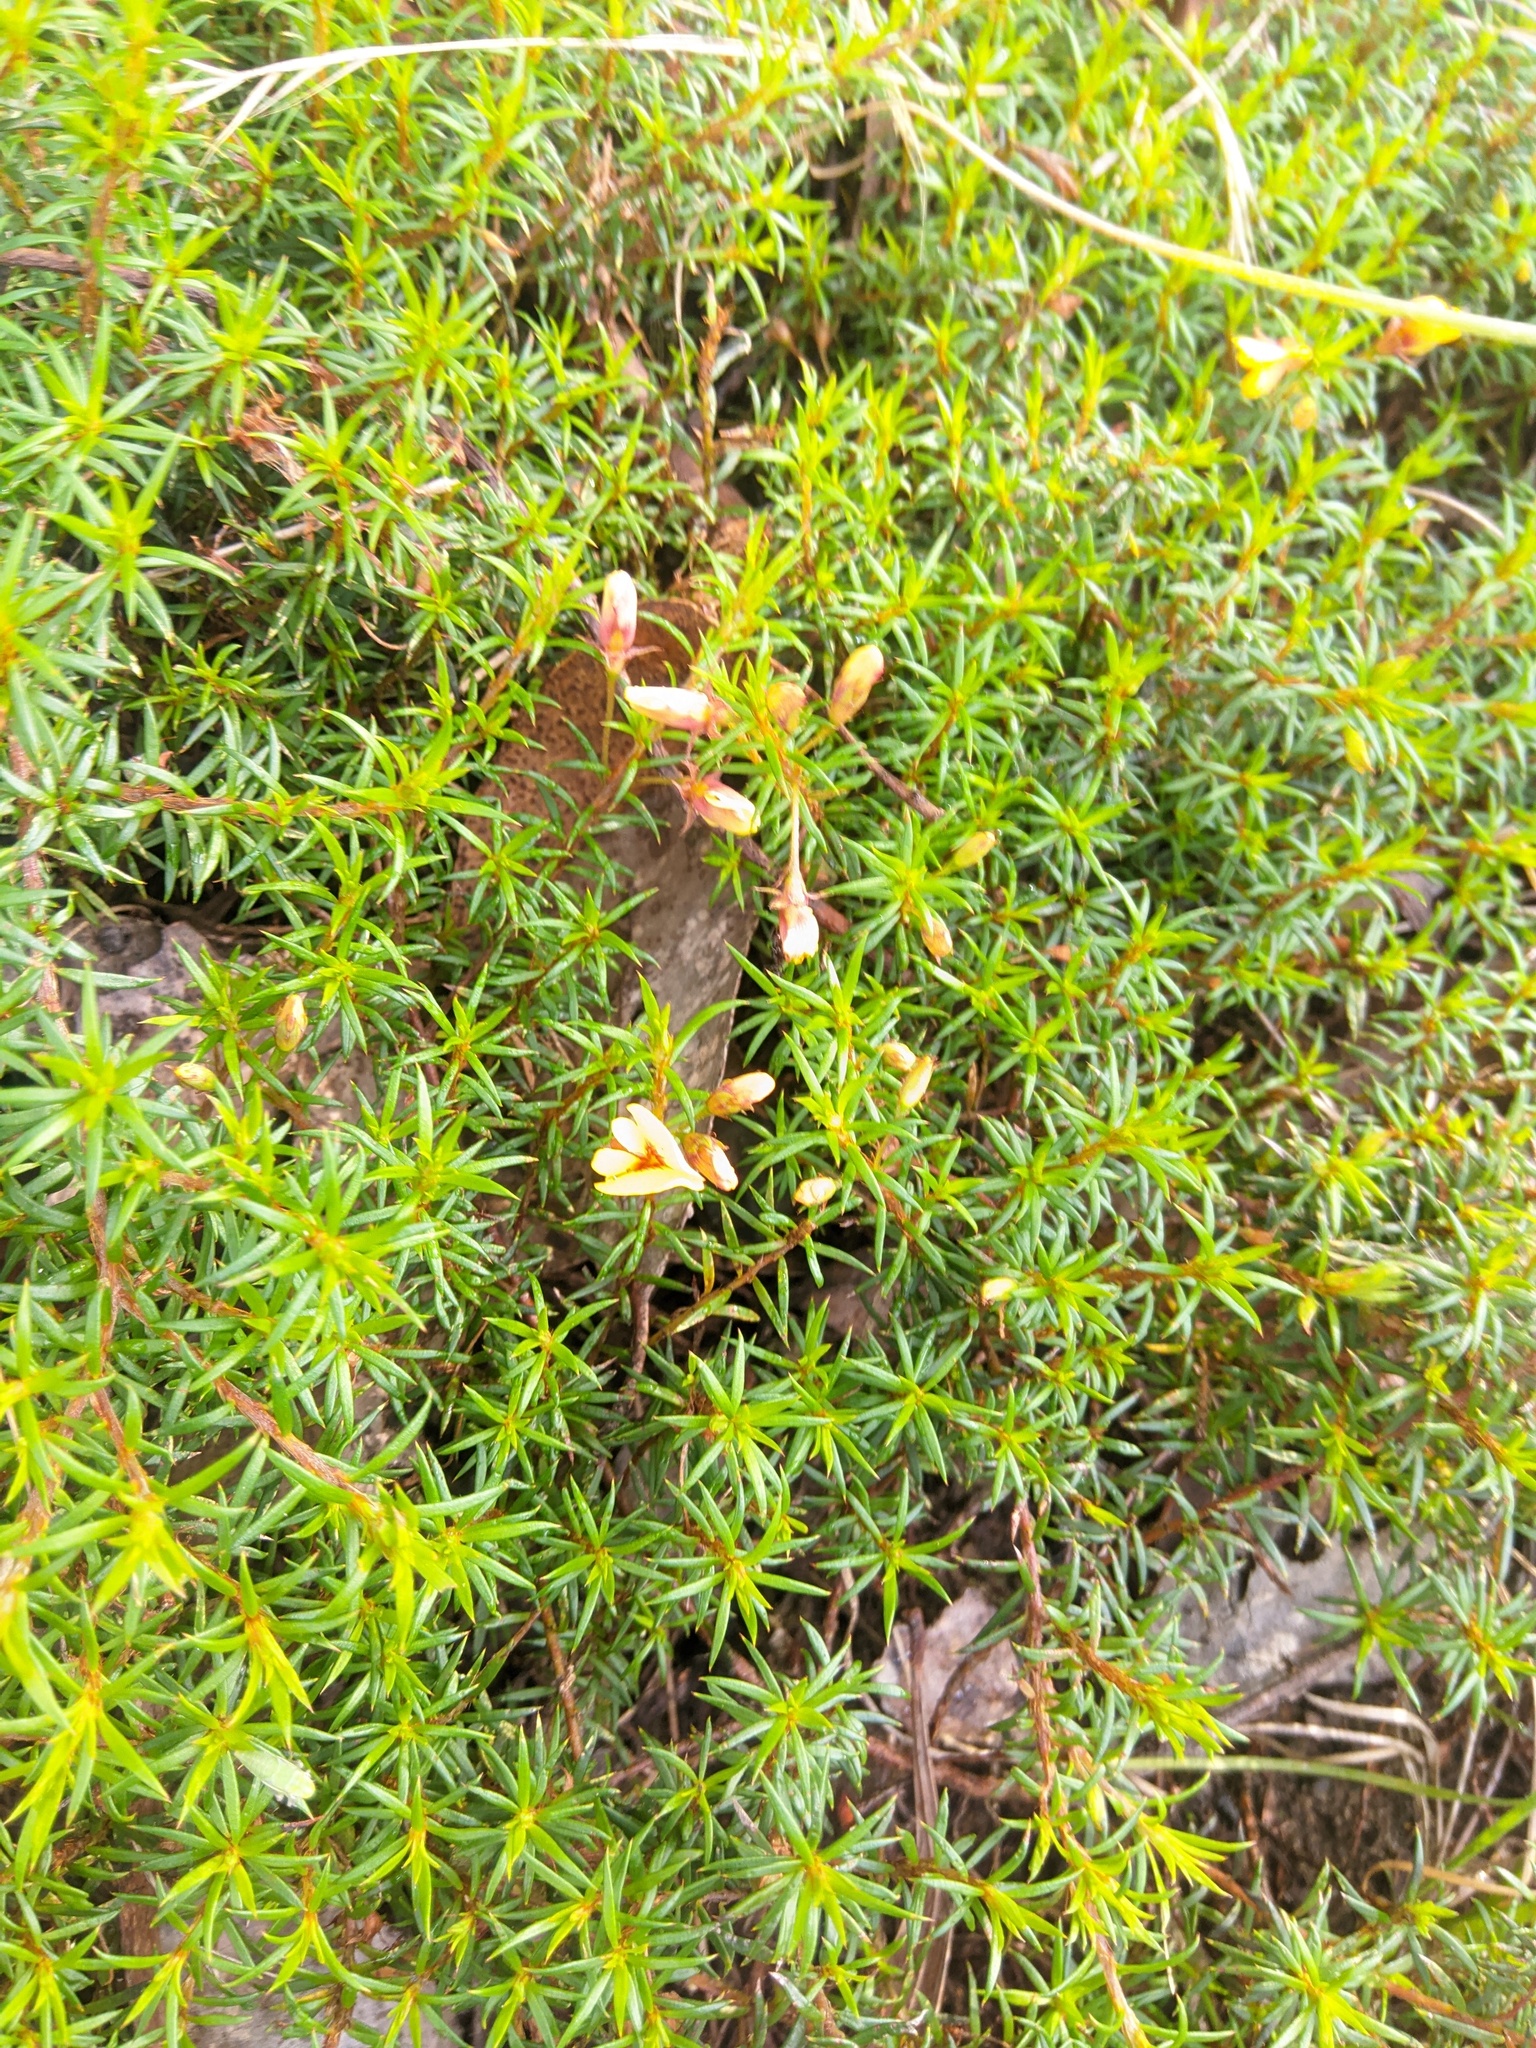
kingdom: Plantae
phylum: Tracheophyta
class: Magnoliopsida
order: Fabales
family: Fabaceae
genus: Pultenaea
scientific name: Pultenaea pedunculata
